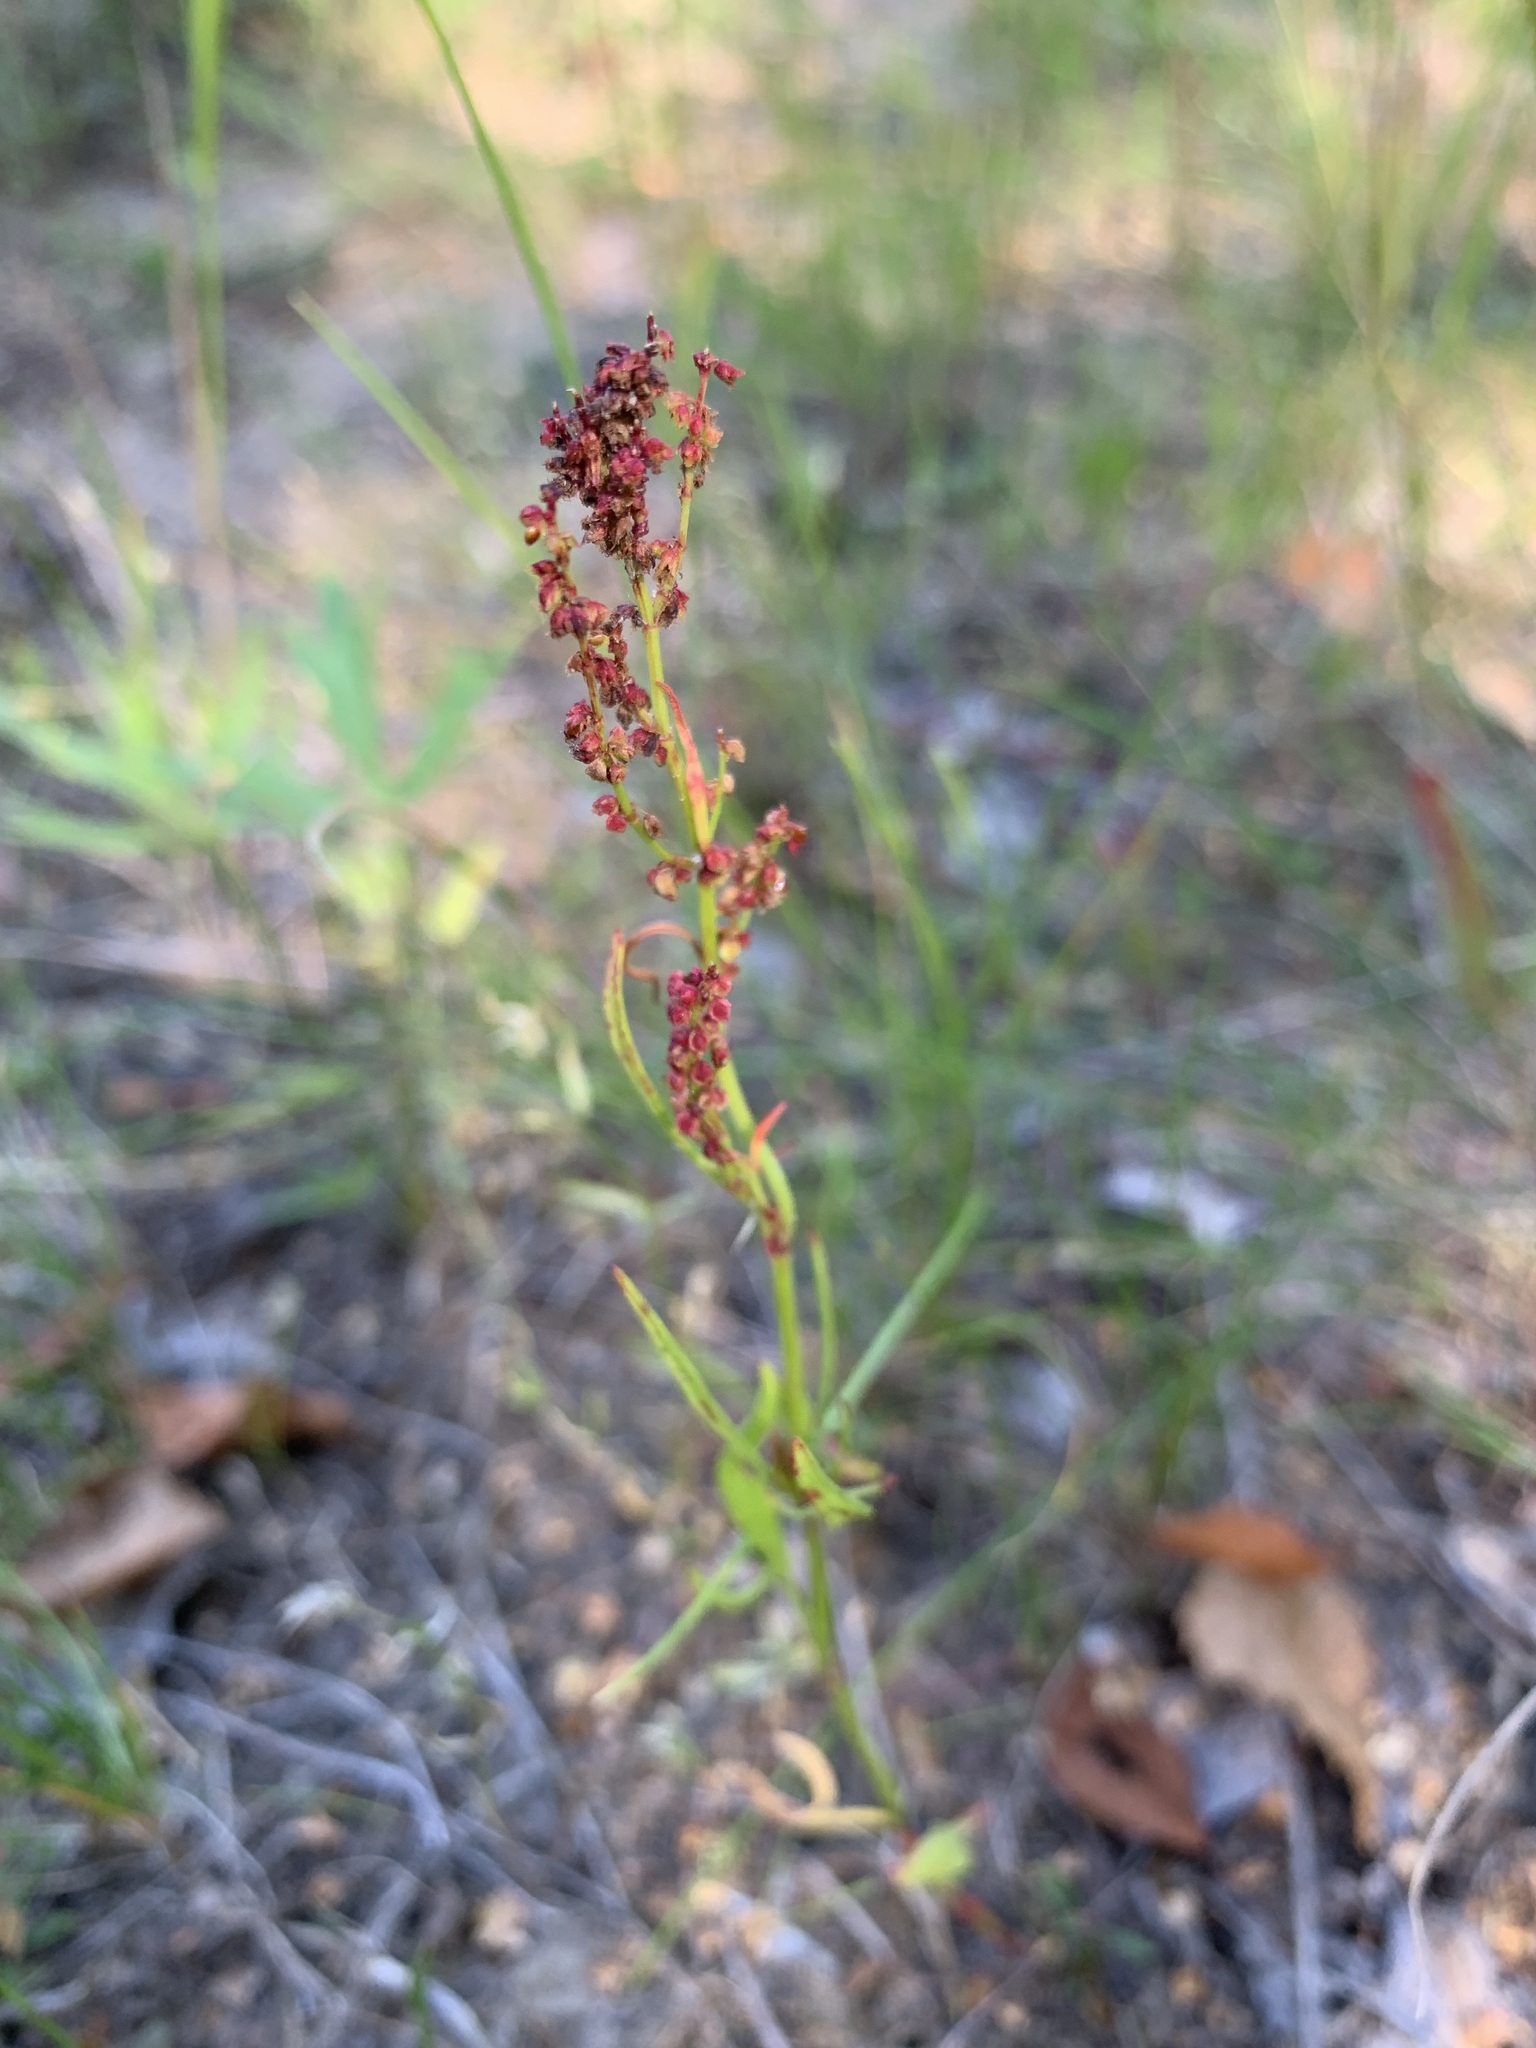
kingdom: Plantae
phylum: Tracheophyta
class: Magnoliopsida
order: Caryophyllales
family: Polygonaceae
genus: Rumex
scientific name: Rumex acetosella
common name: Common sheep sorrel
